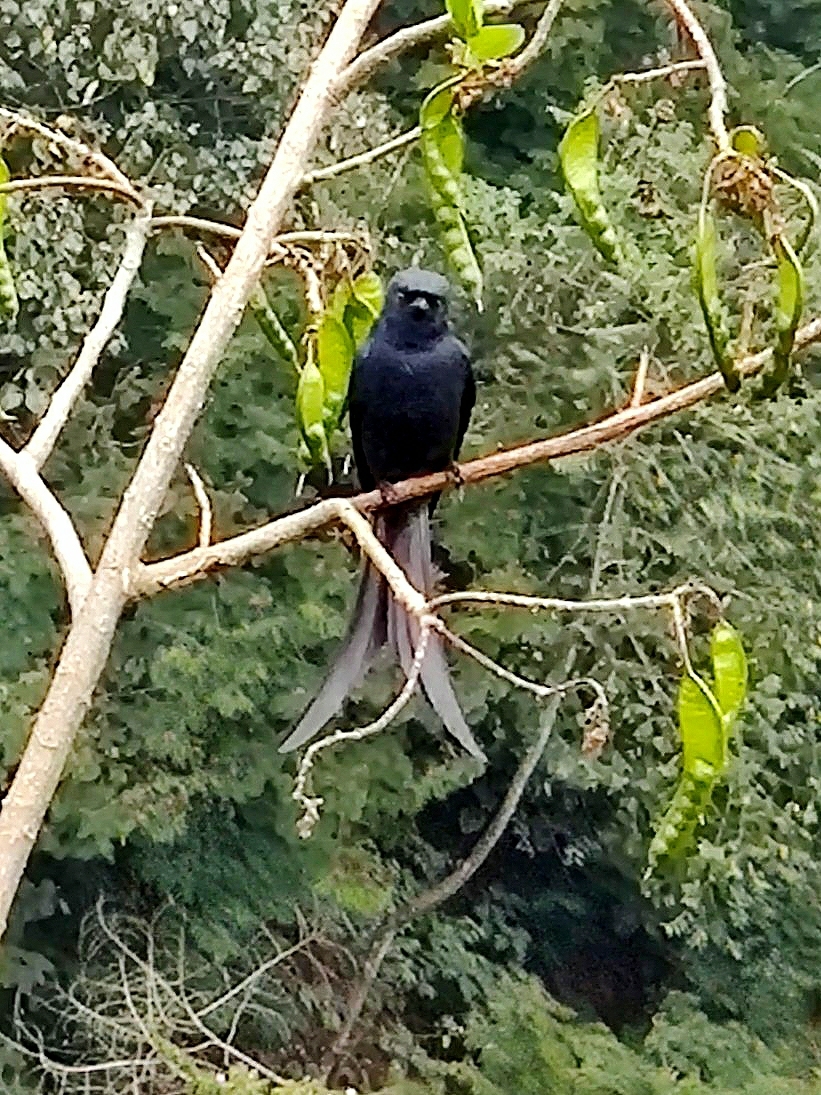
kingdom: Animalia
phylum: Chordata
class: Aves
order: Passeriformes
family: Dicruridae
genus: Dicrurus
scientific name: Dicrurus leucophaeus
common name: Ashy drongo
